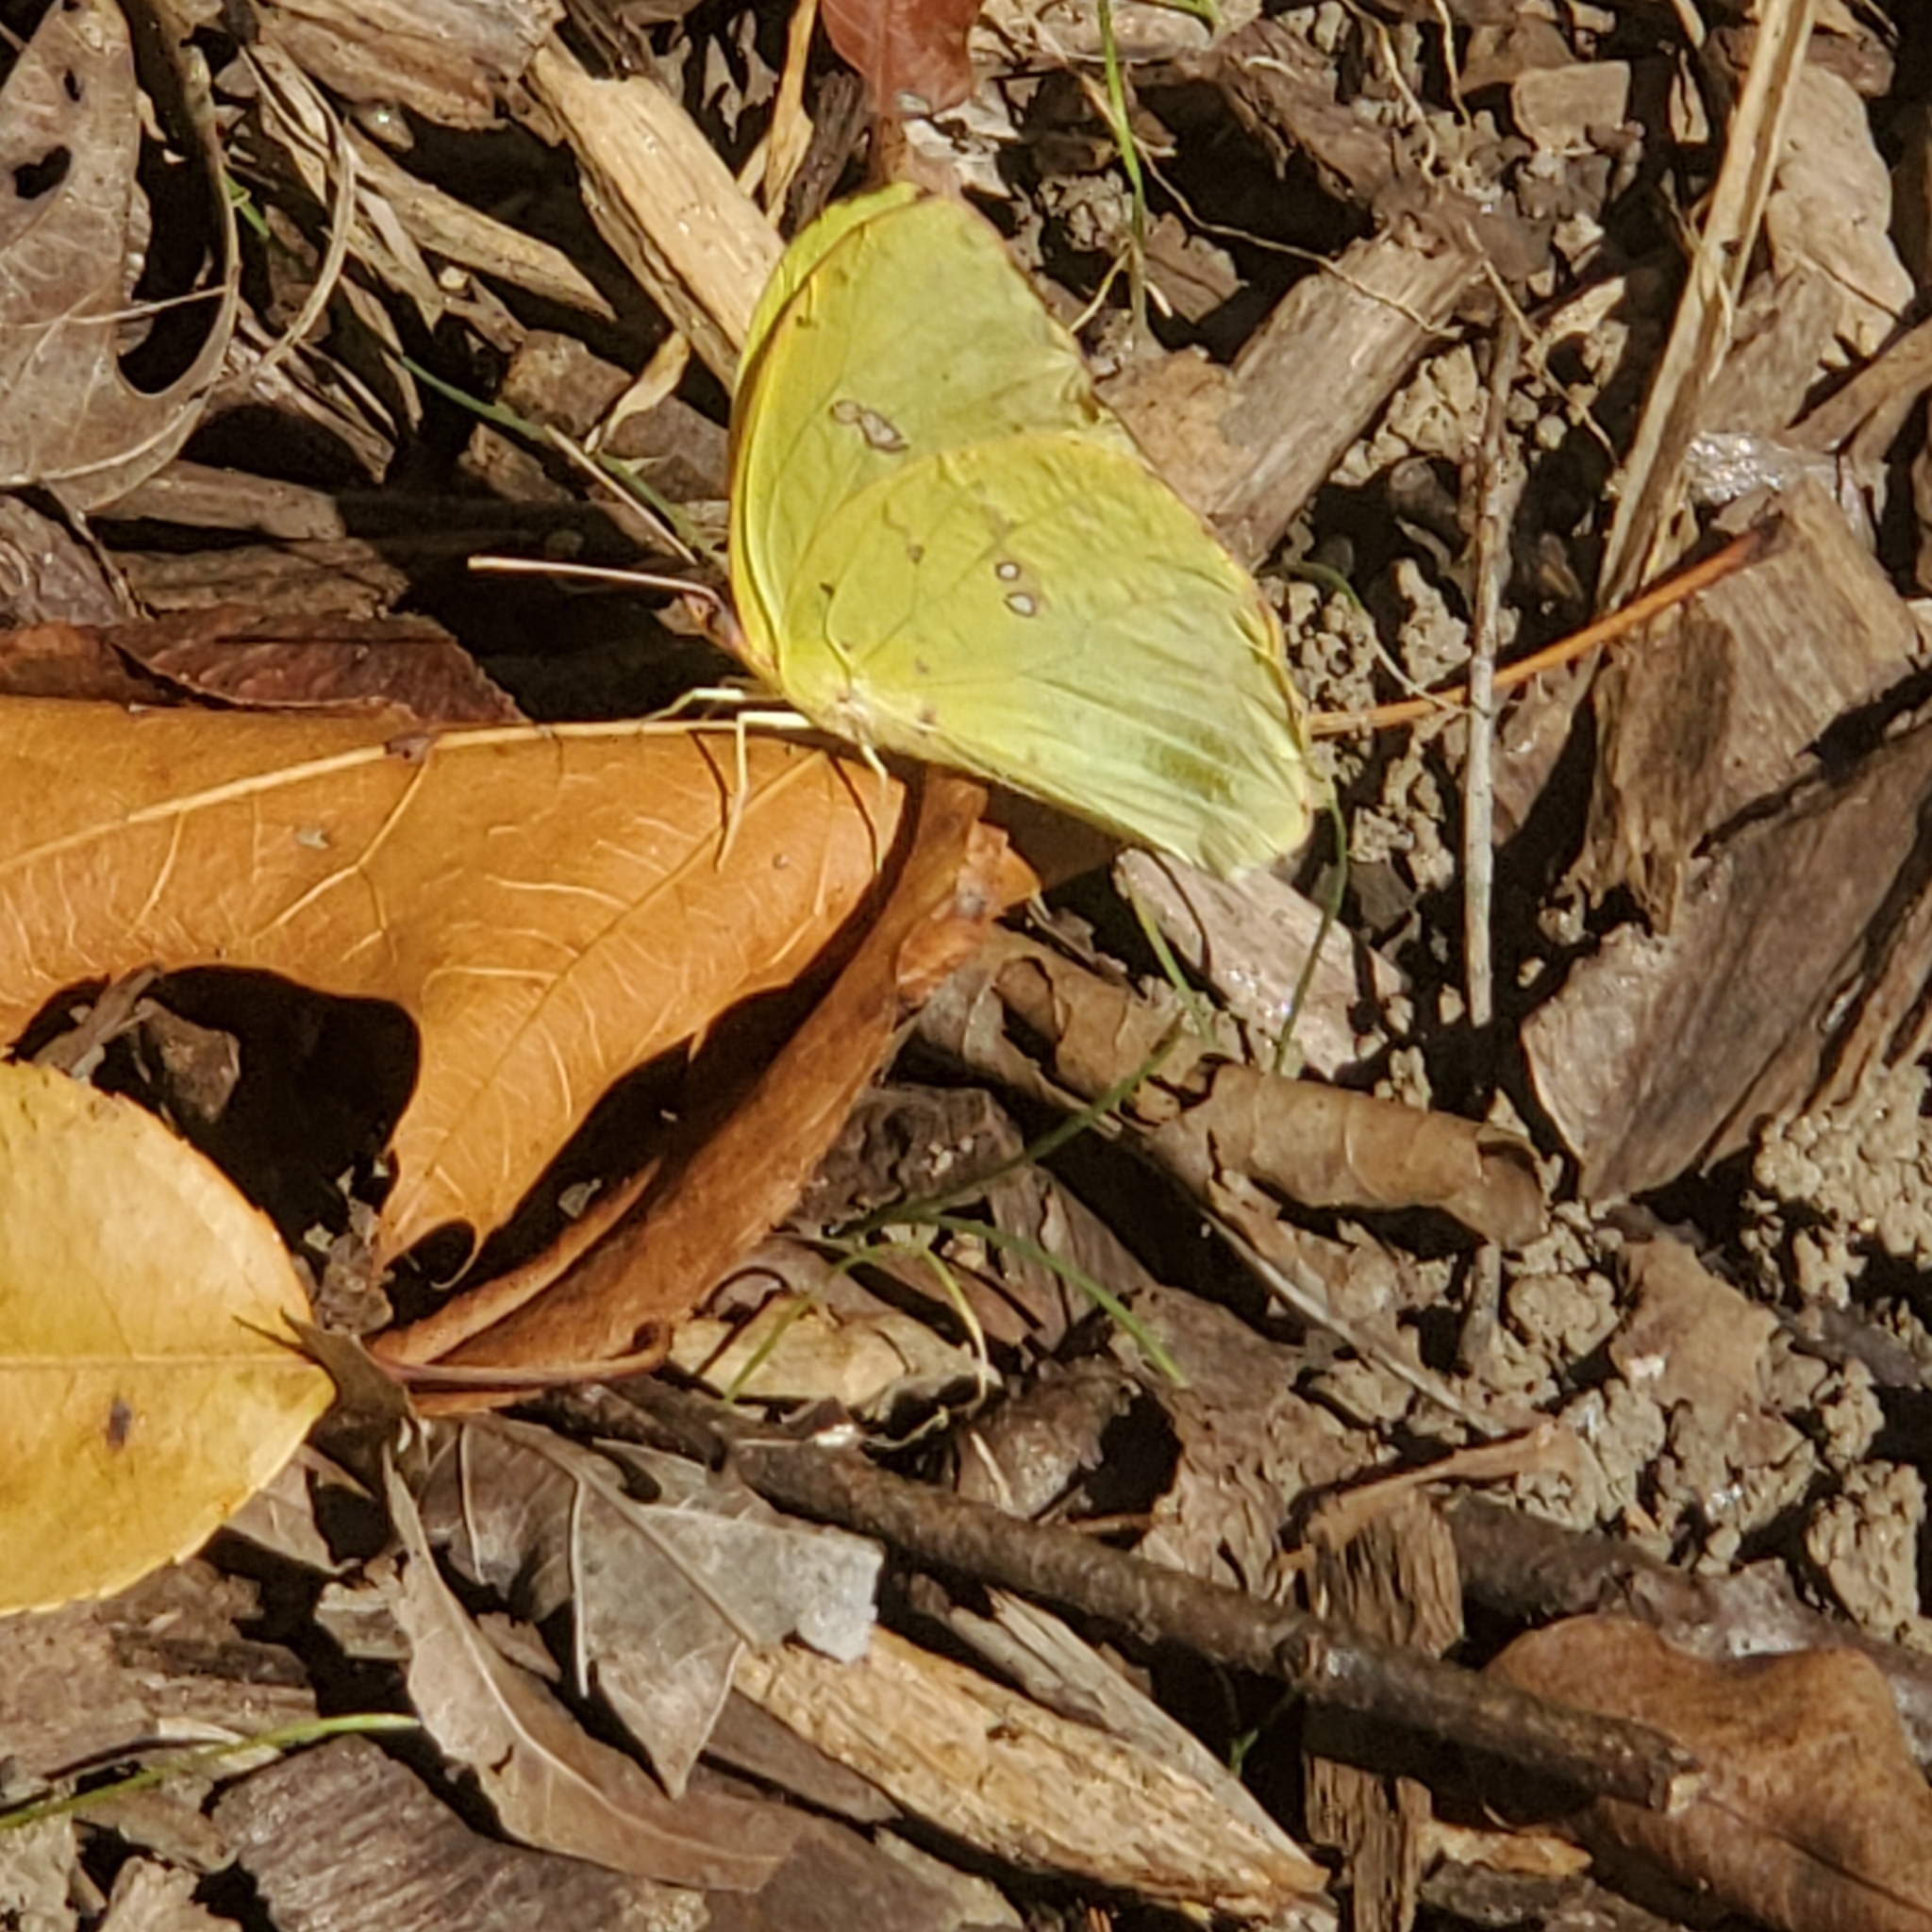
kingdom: Animalia
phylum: Arthropoda
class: Insecta
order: Lepidoptera
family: Pieridae
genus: Phoebis
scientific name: Phoebis sennae
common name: Cloudless sulphur
